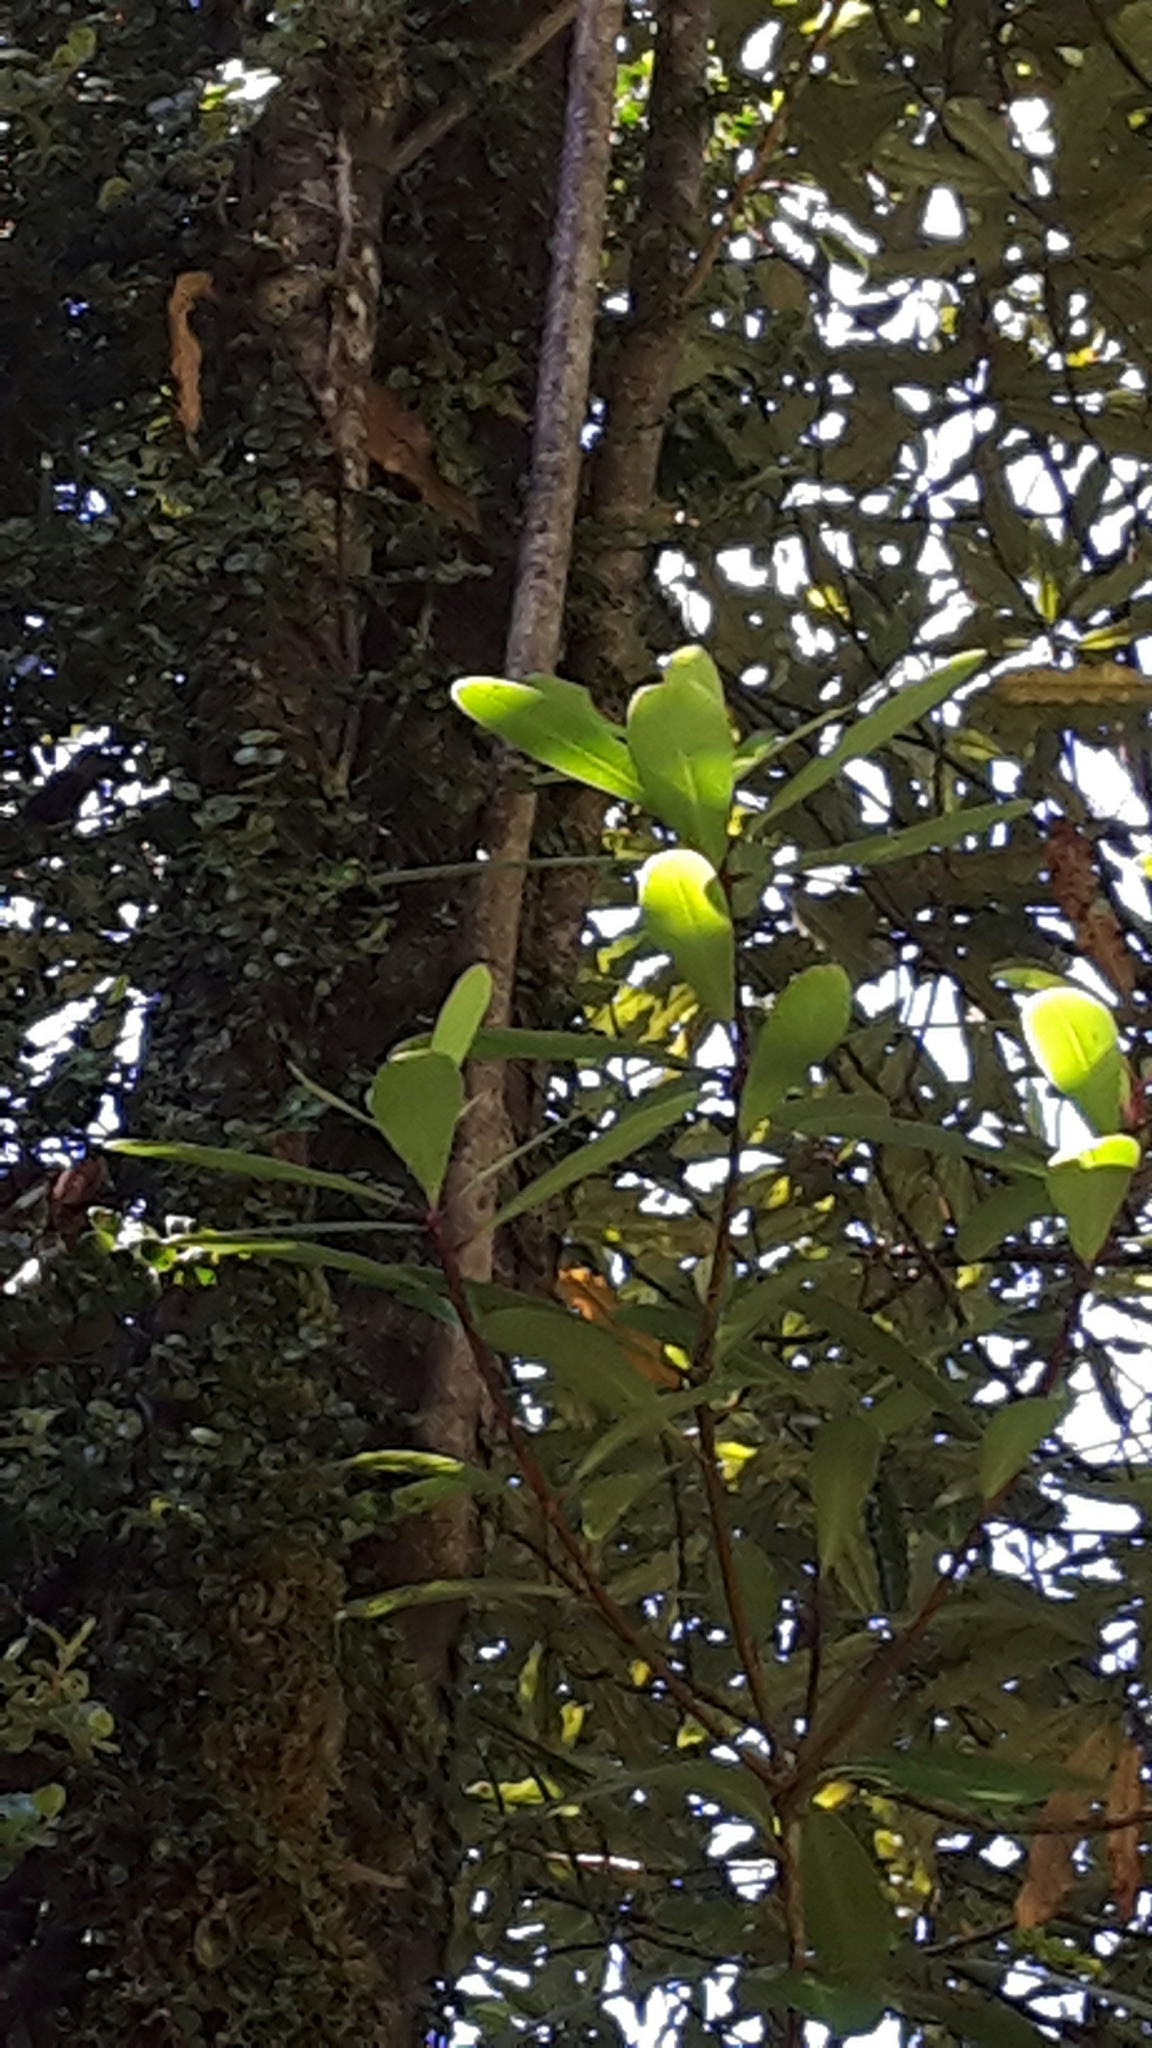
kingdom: Plantae
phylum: Tracheophyta
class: Magnoliopsida
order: Apiales
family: Pittosporaceae
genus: Pittosporum
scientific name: Pittosporum kirkii
